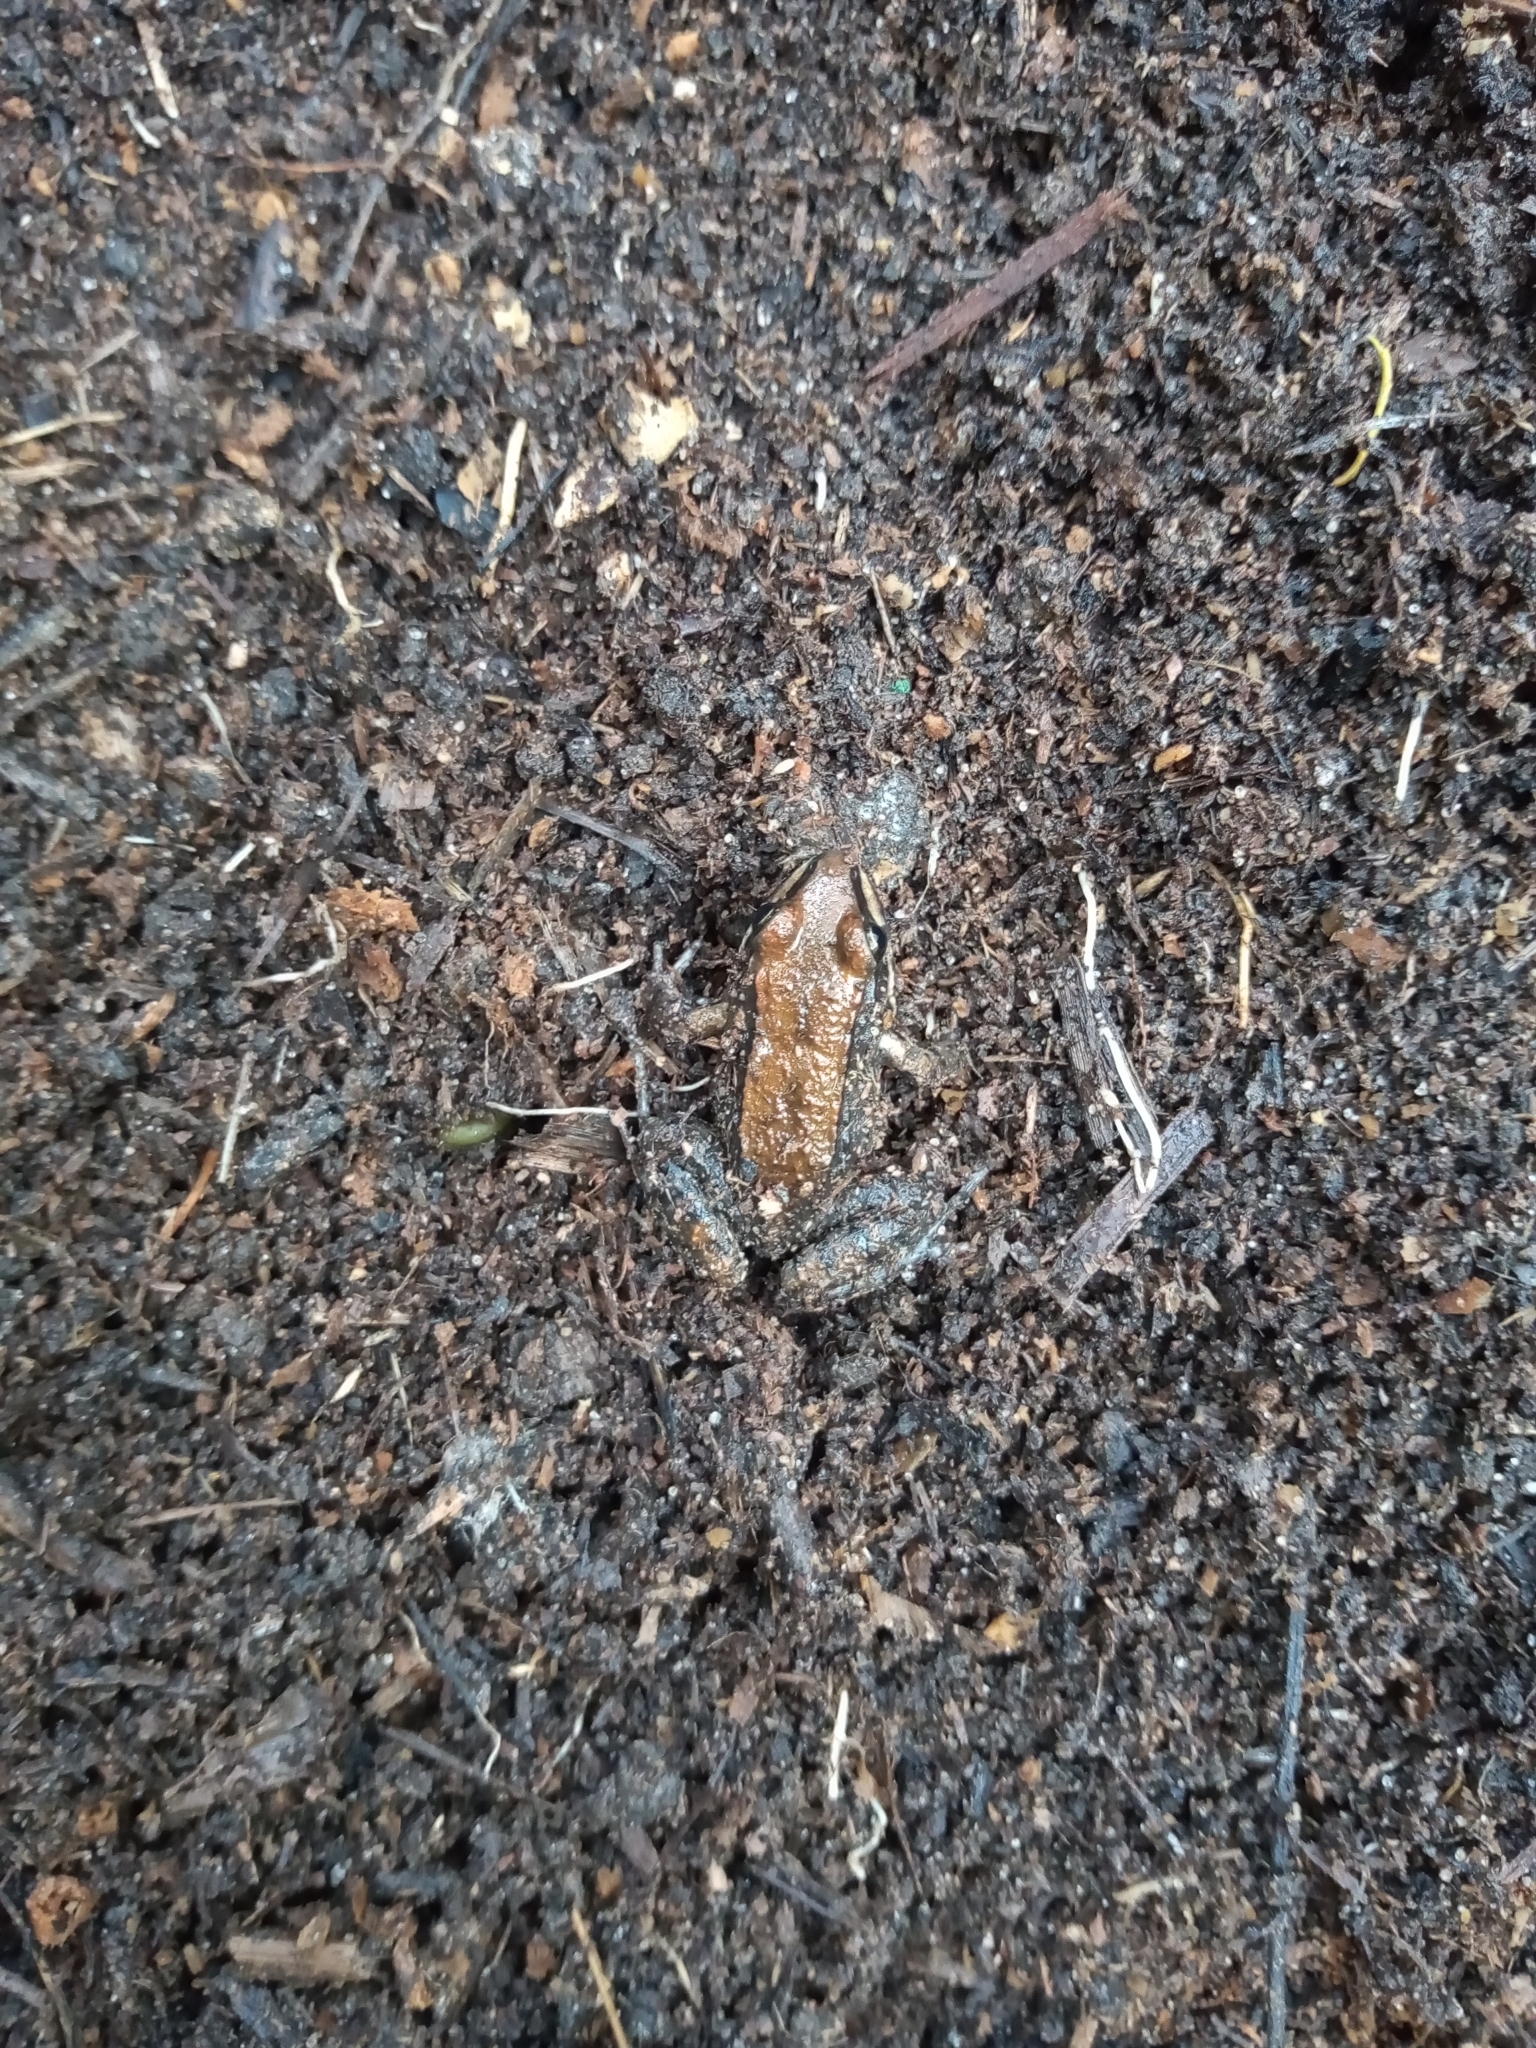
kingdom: Animalia
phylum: Chordata
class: Amphibia
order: Anura
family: Leptodactylidae
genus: Leptodactylus
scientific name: Leptodactylus mystacinus
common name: Moustached frog
